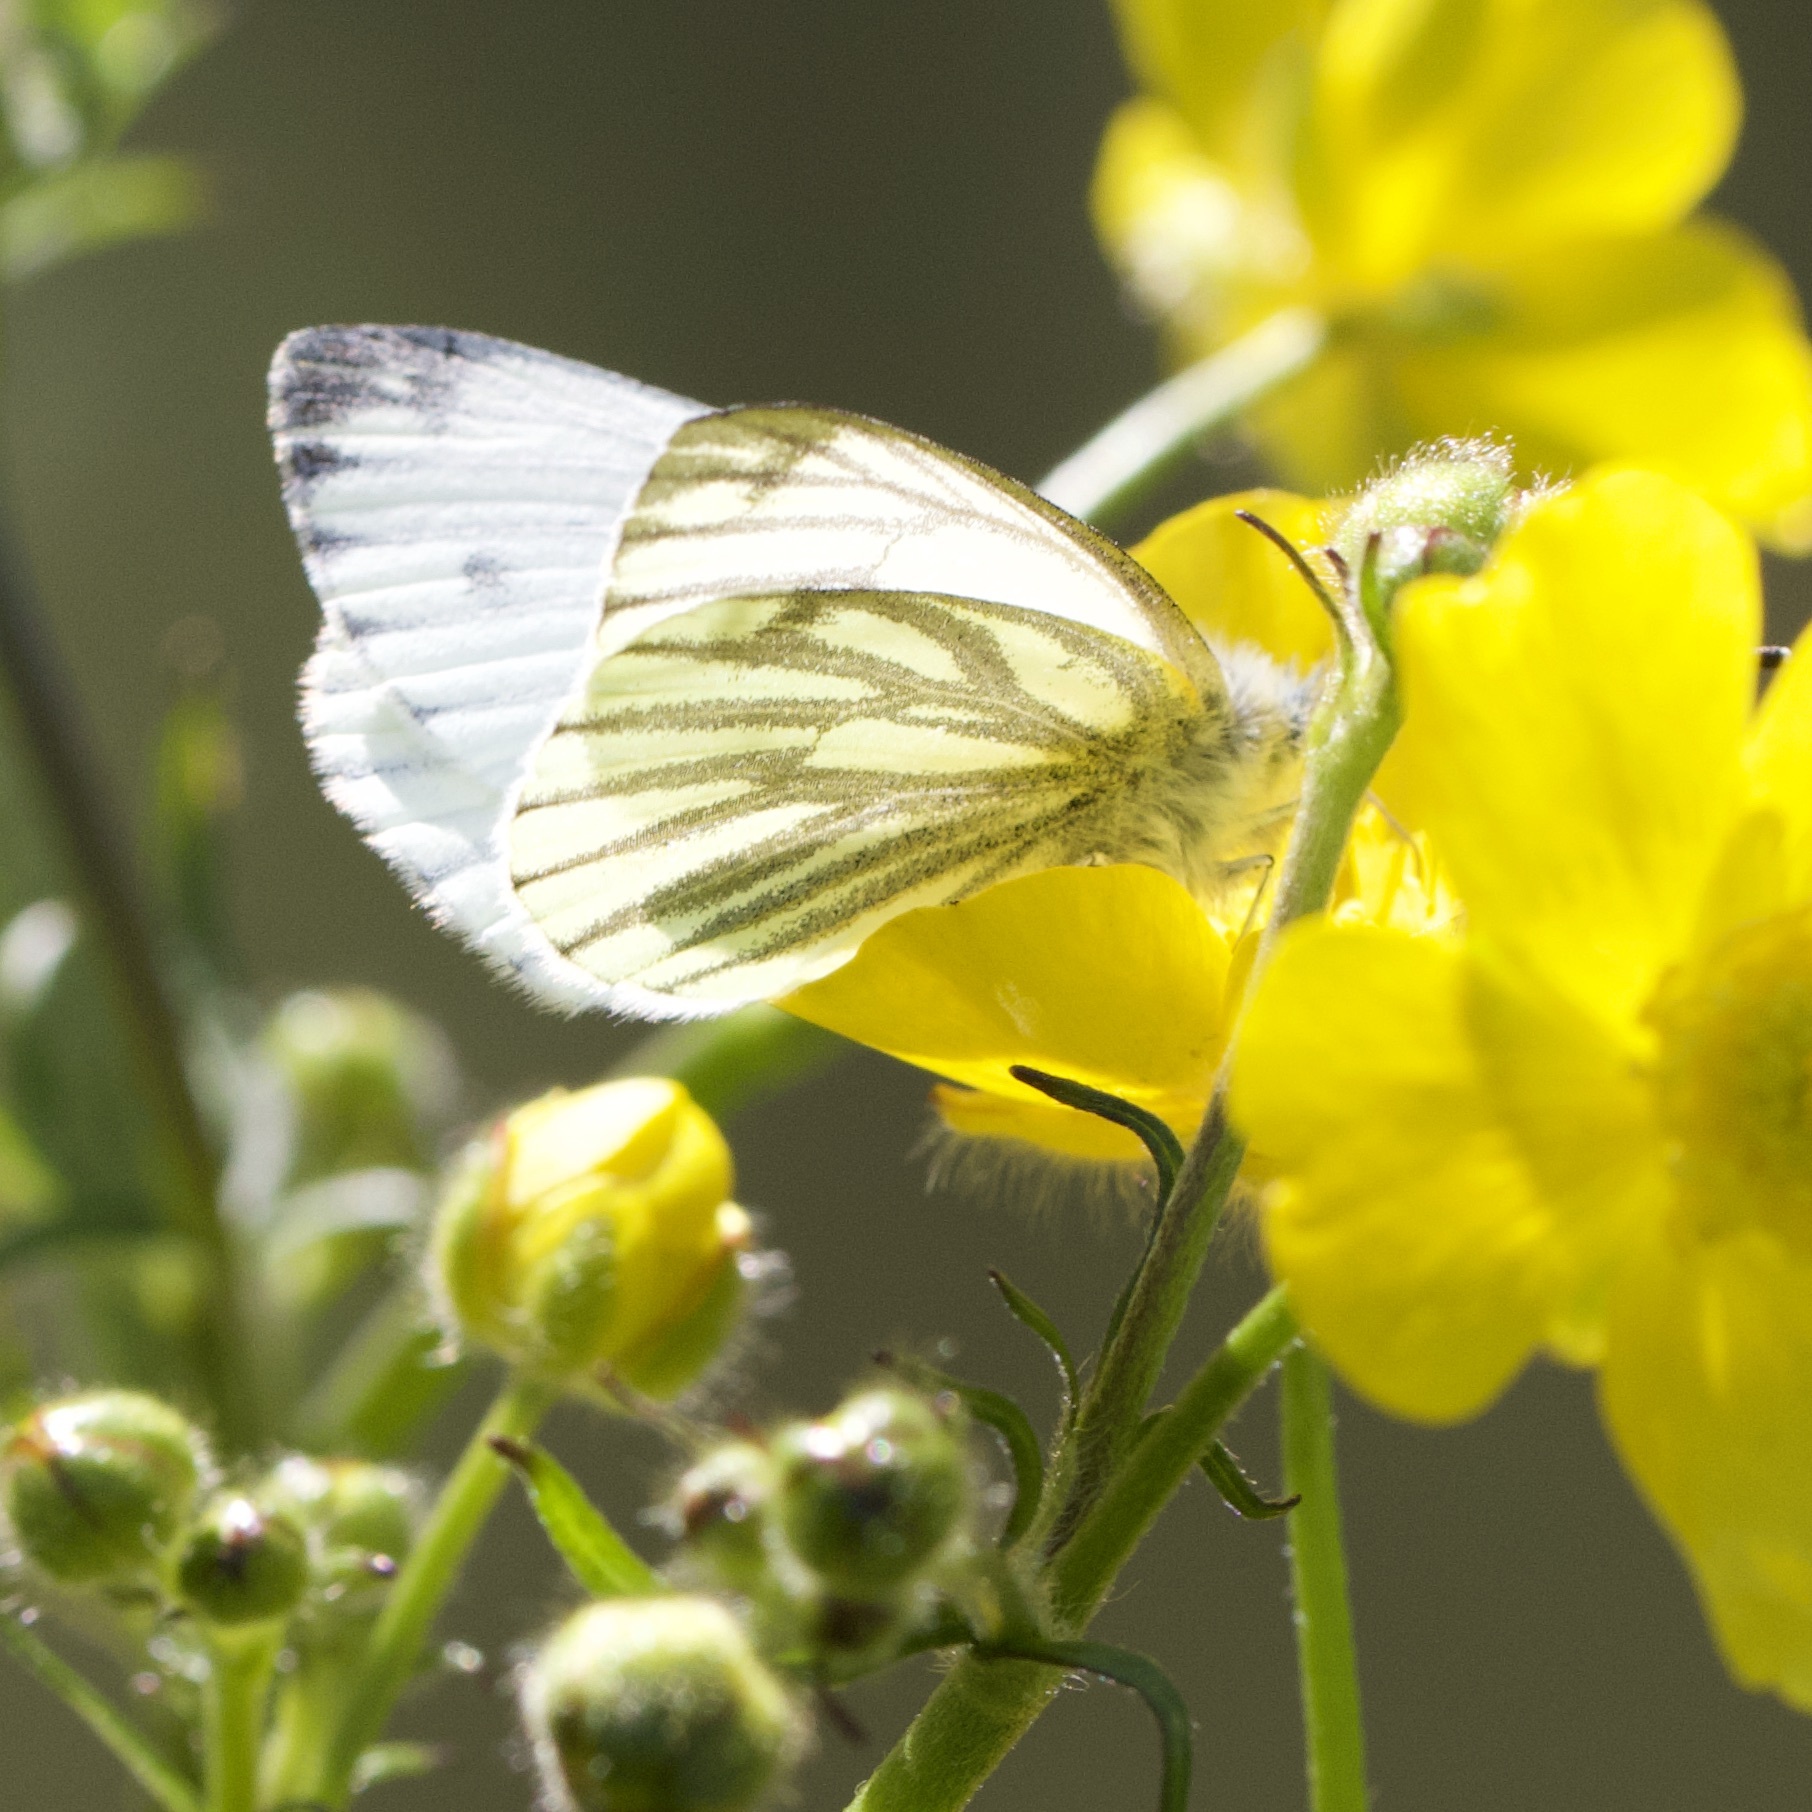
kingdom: Animalia
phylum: Arthropoda
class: Insecta
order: Lepidoptera
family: Pieridae
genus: Pieris
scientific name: Pieris napi
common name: Green-veined white
